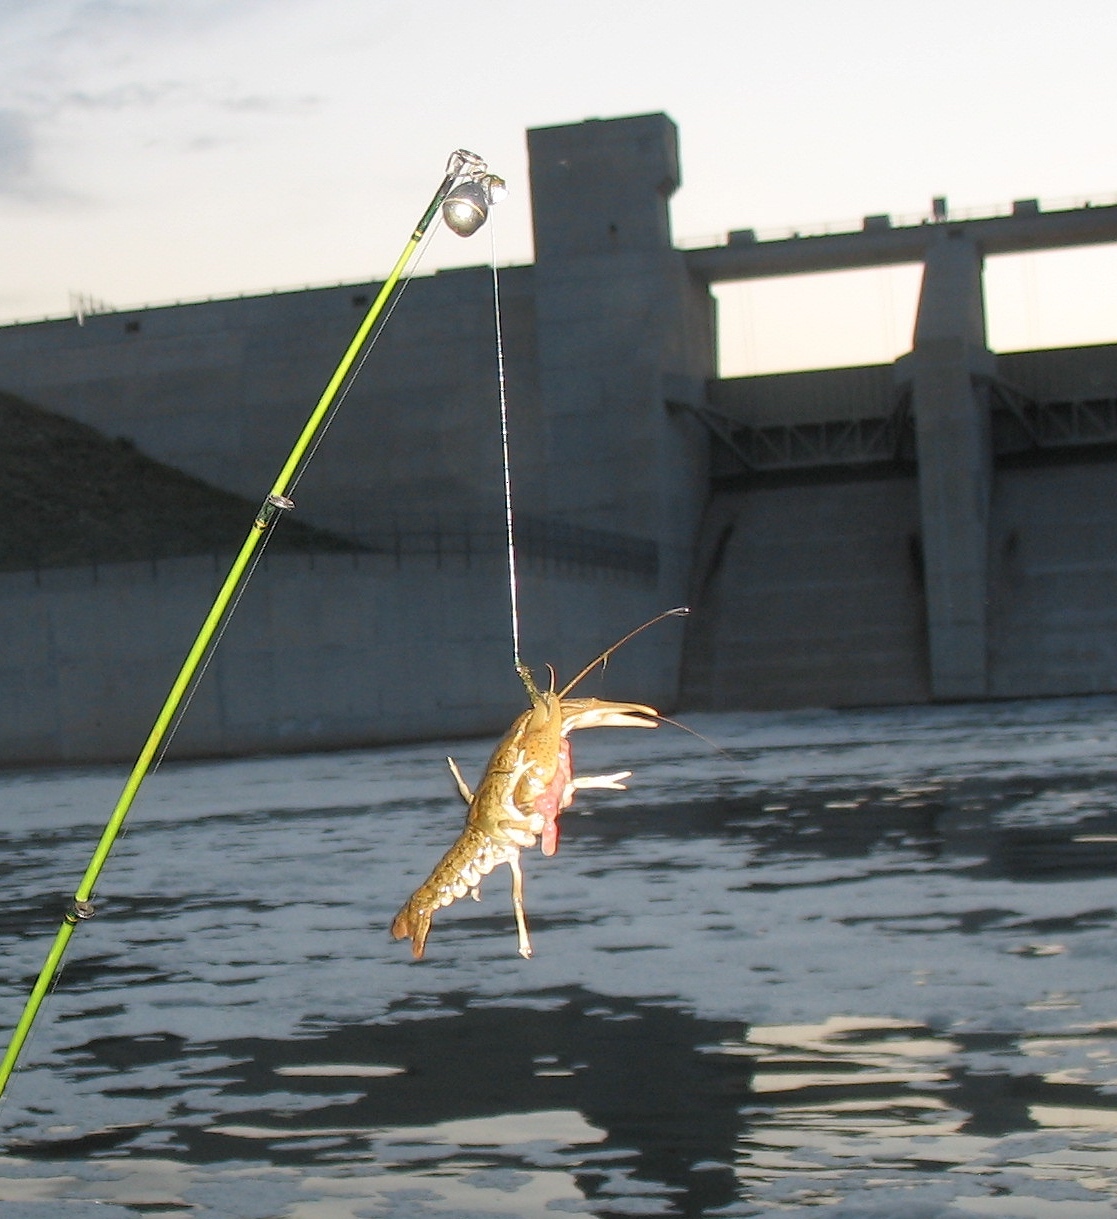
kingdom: Animalia
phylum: Arthropoda
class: Malacostraca
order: Decapoda
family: Cambaridae
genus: Procambarus
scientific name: Procambarus simulans
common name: Southern plains crayfish
